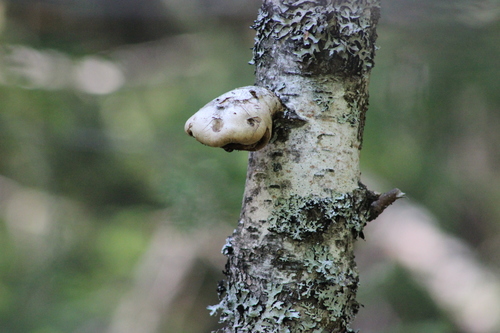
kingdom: Fungi
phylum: Basidiomycota
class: Agaricomycetes
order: Polyporales
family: Fomitopsidaceae
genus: Fomitopsis
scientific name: Fomitopsis betulina
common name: Birch polypore
